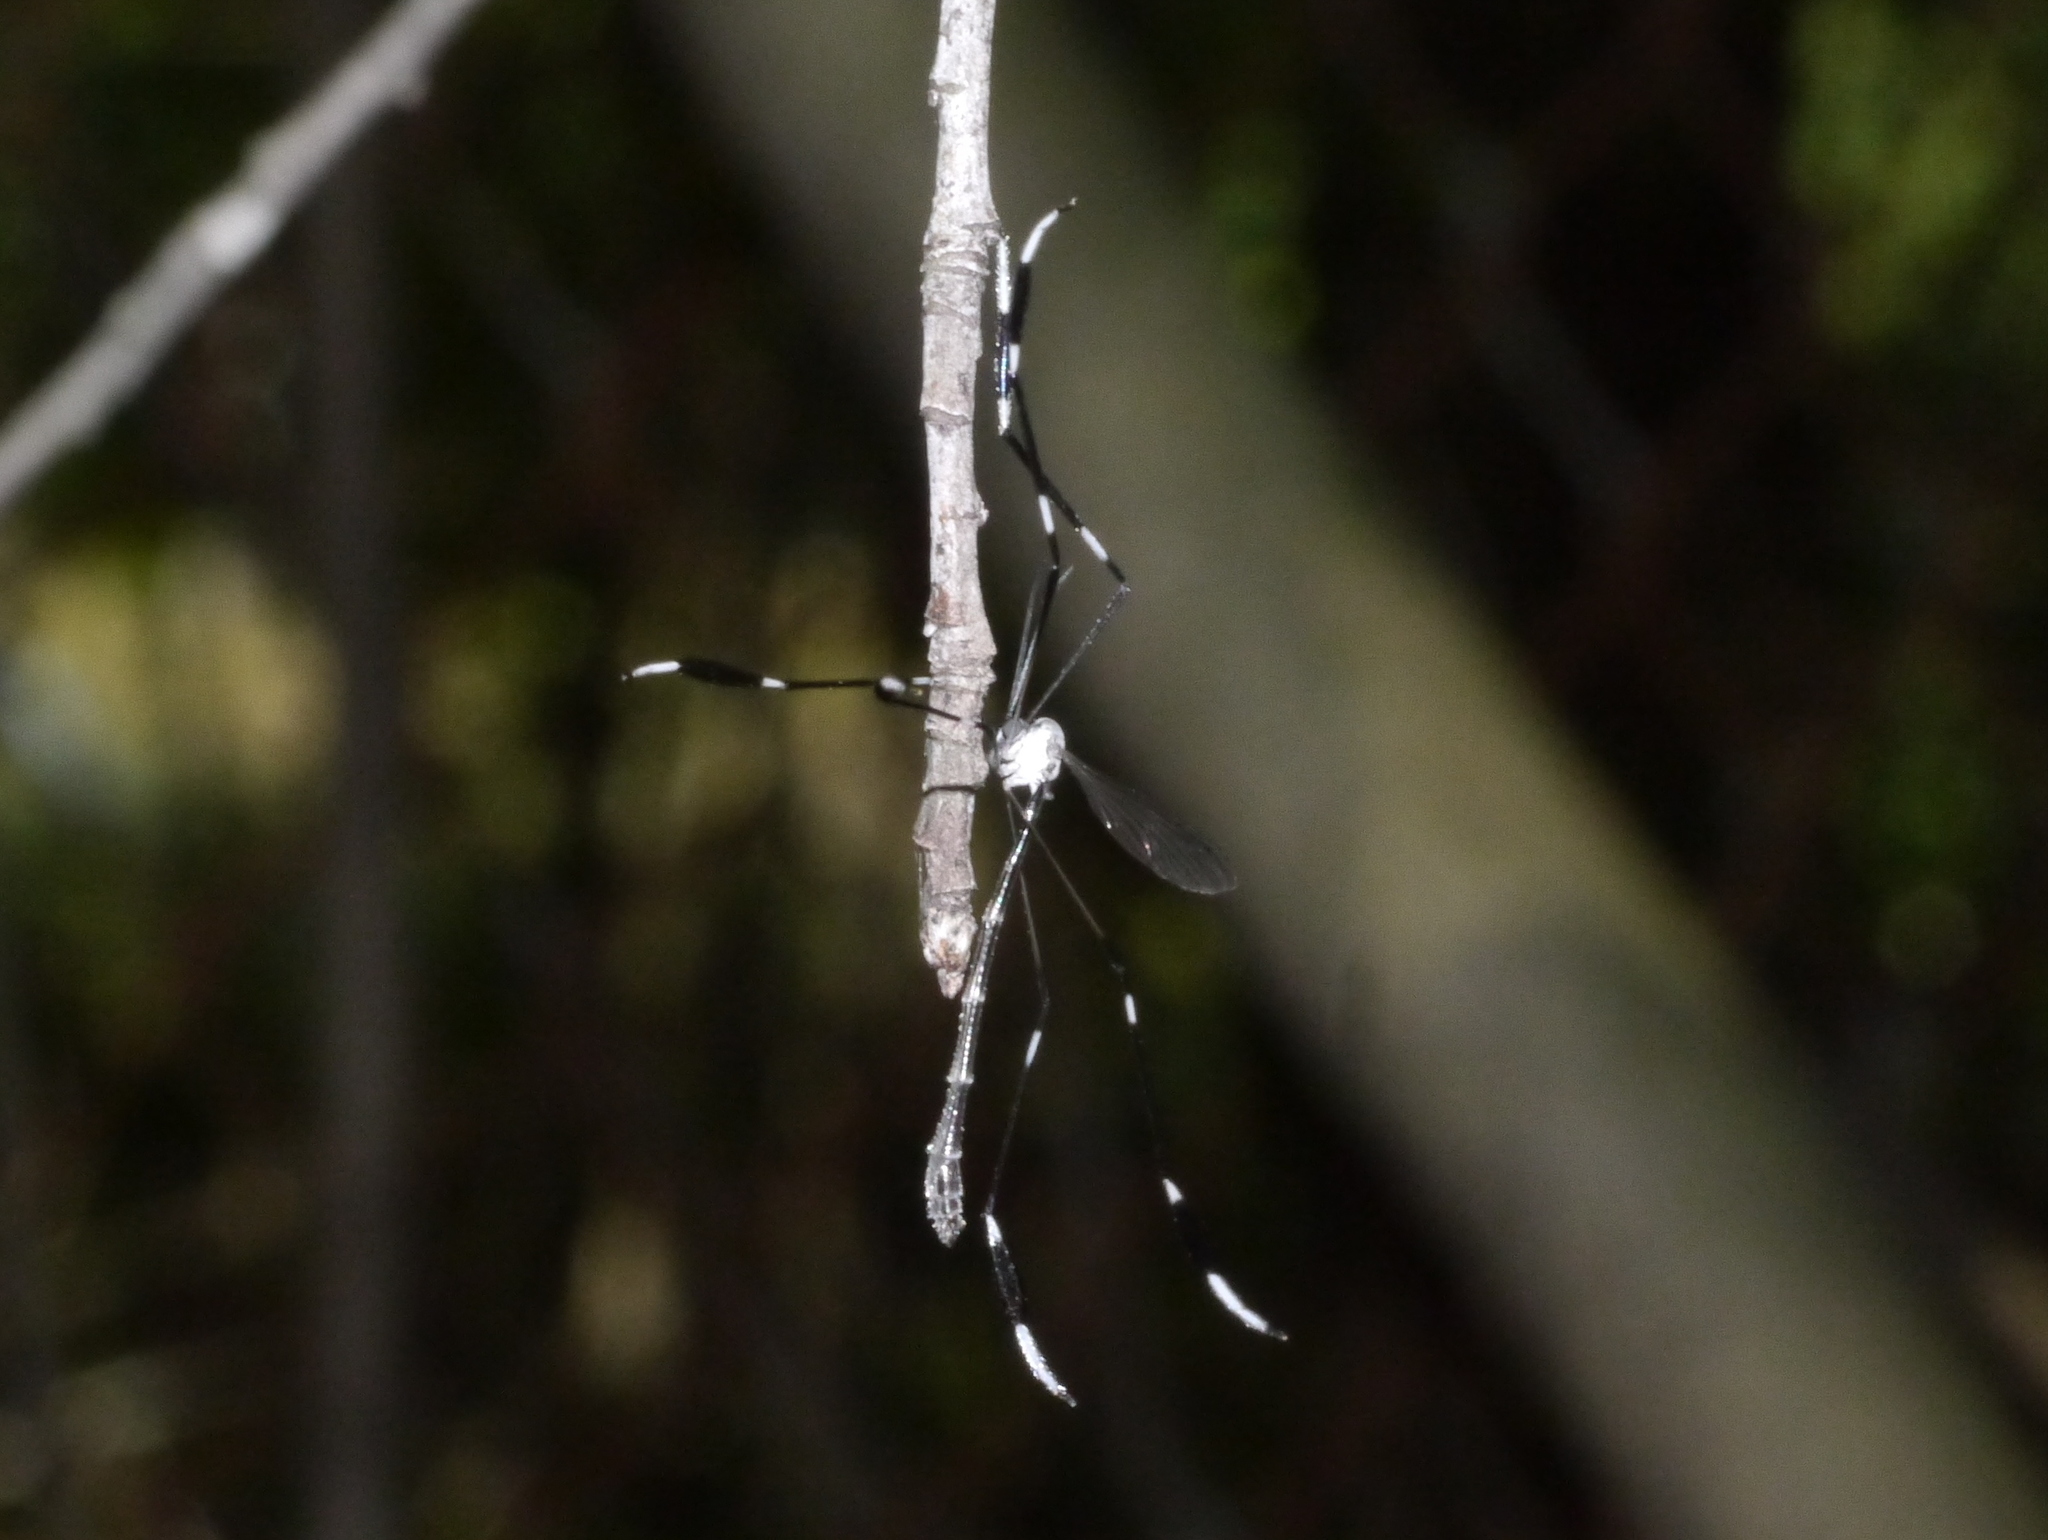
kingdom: Animalia
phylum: Arthropoda
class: Insecta
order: Diptera
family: Ptychopteridae
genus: Bittacomorpha
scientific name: Bittacomorpha clavipes
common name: Eastern phantom crane fly
